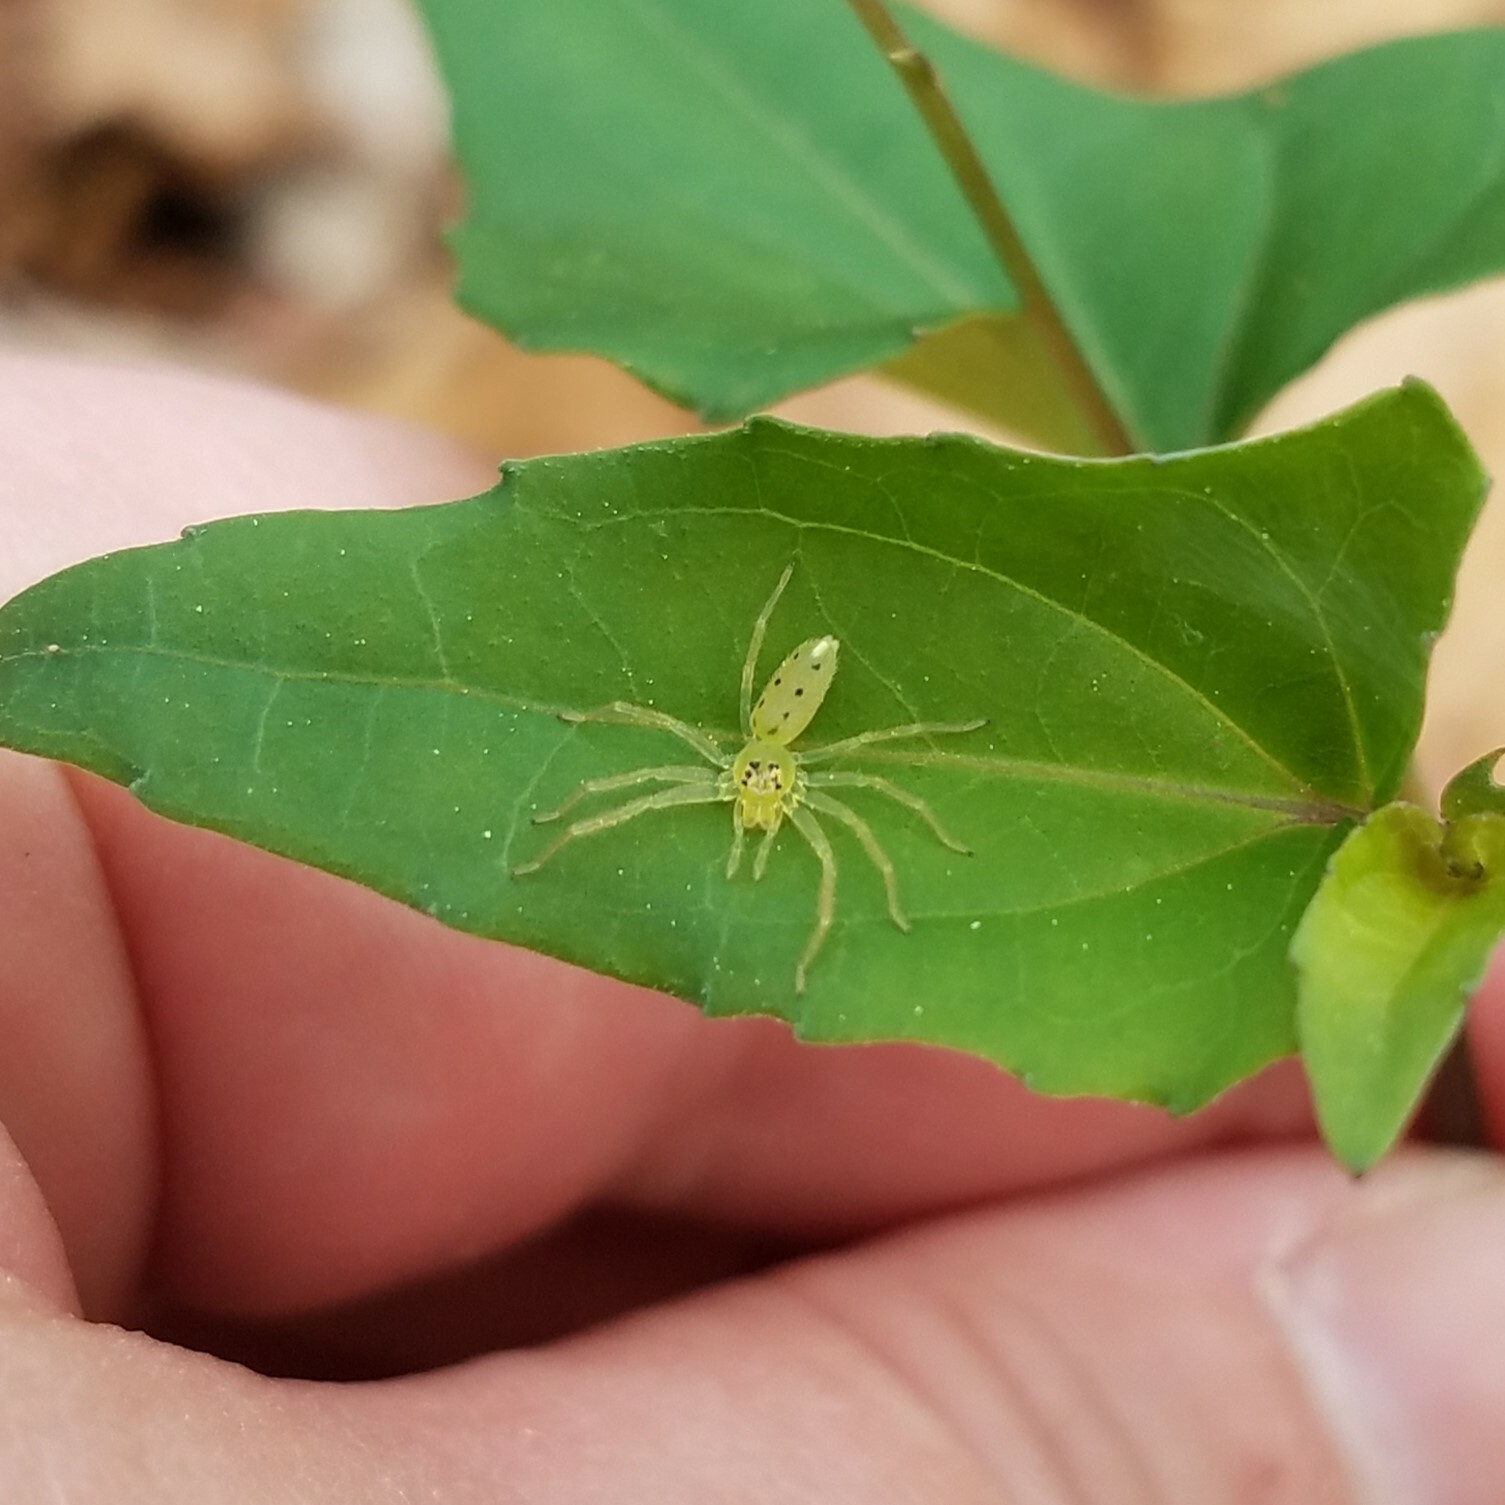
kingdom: Animalia
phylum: Arthropoda
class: Arachnida
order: Araneae
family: Salticidae
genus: Lyssomanes
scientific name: Lyssomanes viridis
